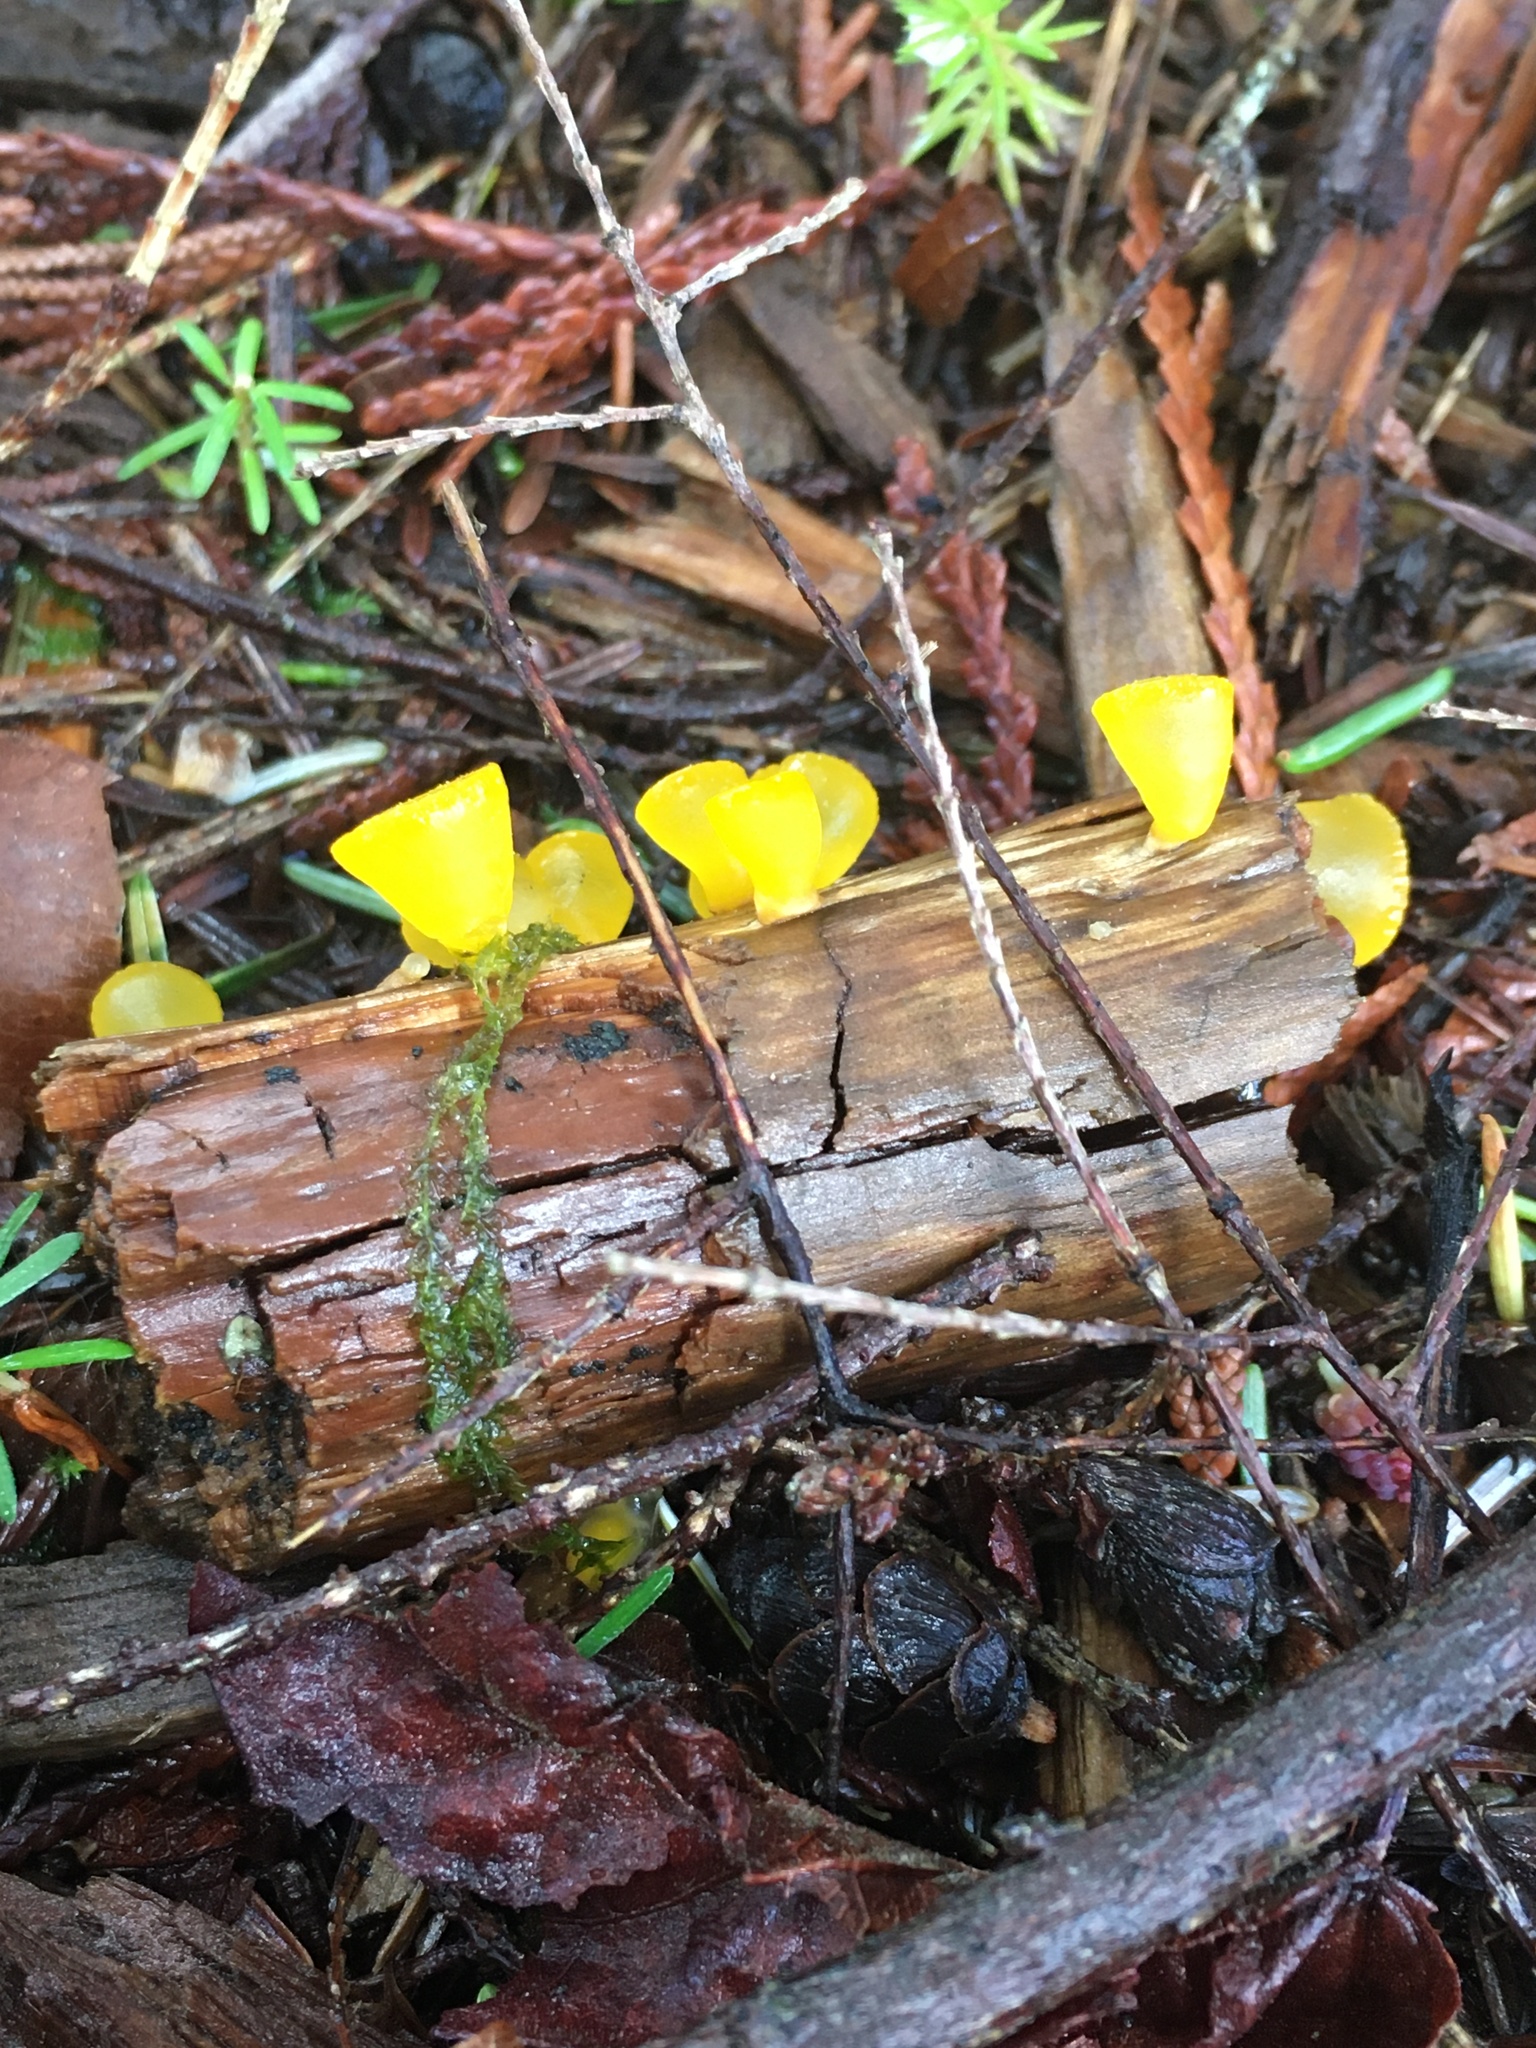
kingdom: Fungi
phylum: Basidiomycota
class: Dacrymycetes
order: Dacrymycetales
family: Dacrymycetaceae
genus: Guepiniopsis
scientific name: Guepiniopsis alpina
